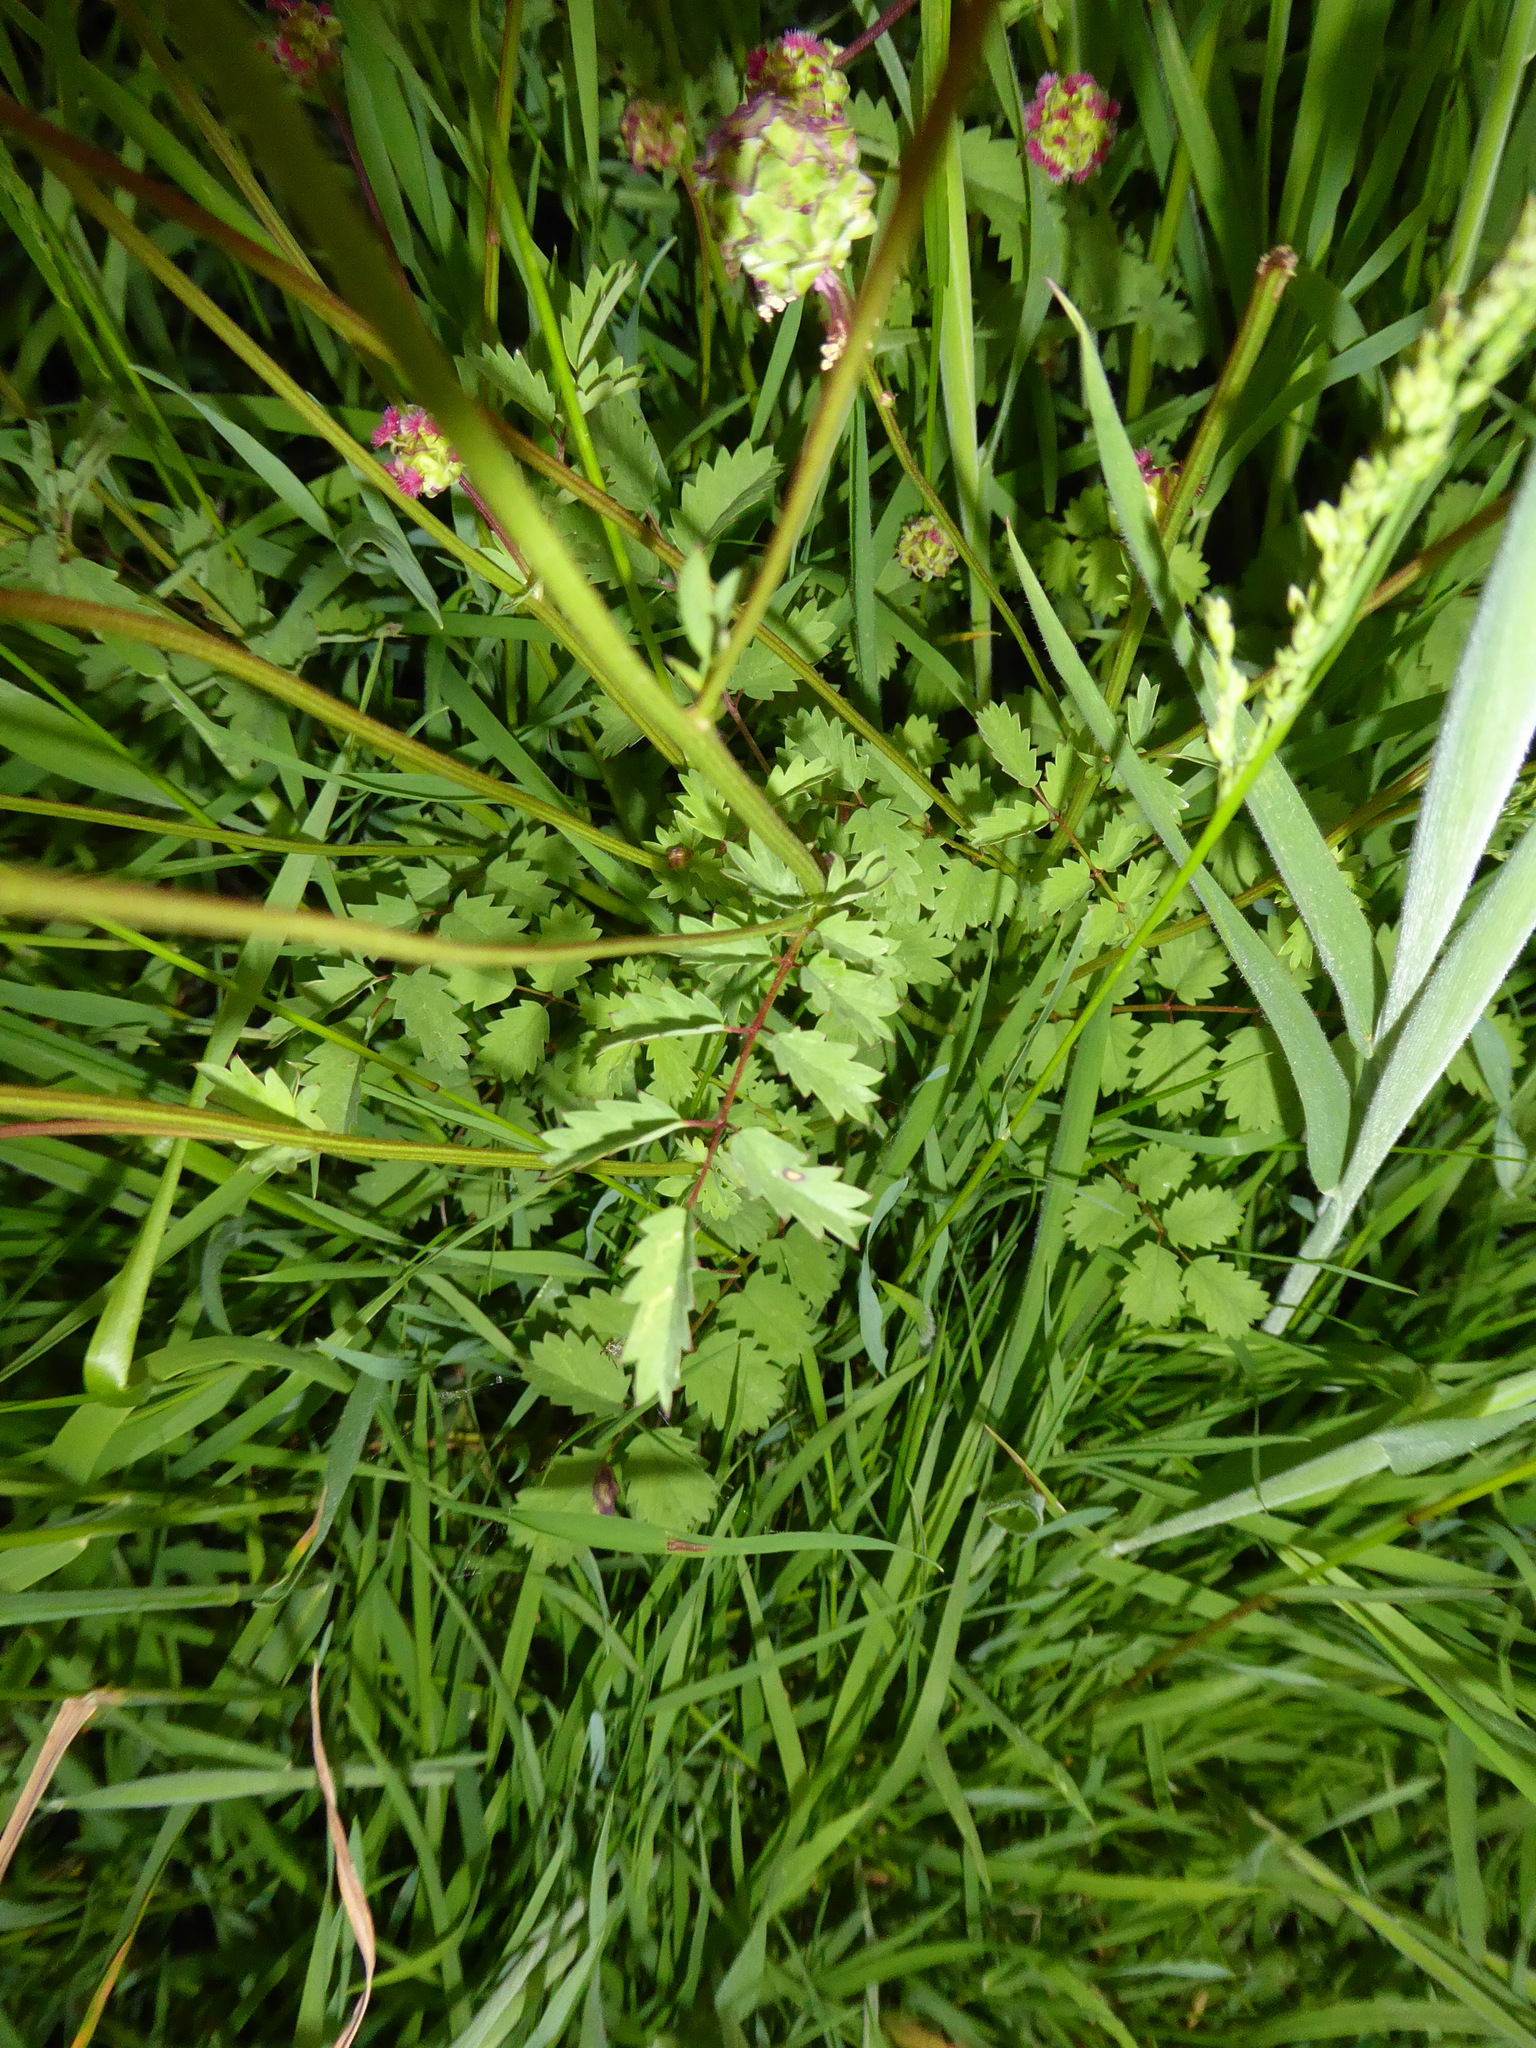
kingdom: Plantae
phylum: Tracheophyta
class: Magnoliopsida
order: Rosales
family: Rosaceae
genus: Poterium
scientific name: Poterium sanguisorba
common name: Salad burnet
